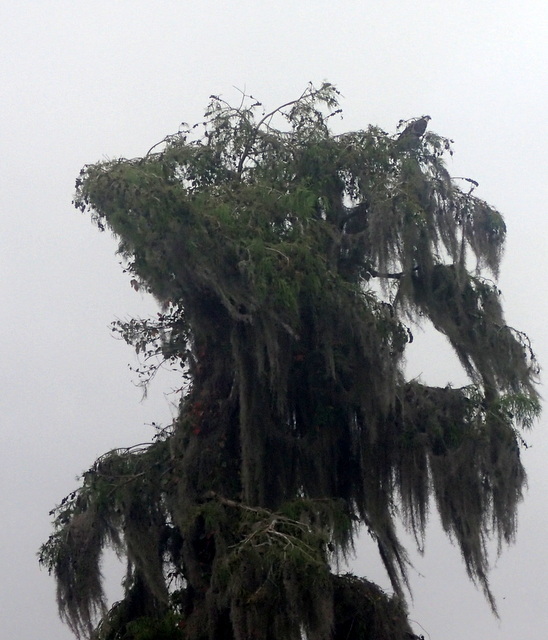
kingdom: Animalia
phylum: Chordata
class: Aves
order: Accipitriformes
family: Pandionidae
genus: Pandion
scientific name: Pandion haliaetus
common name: Osprey
